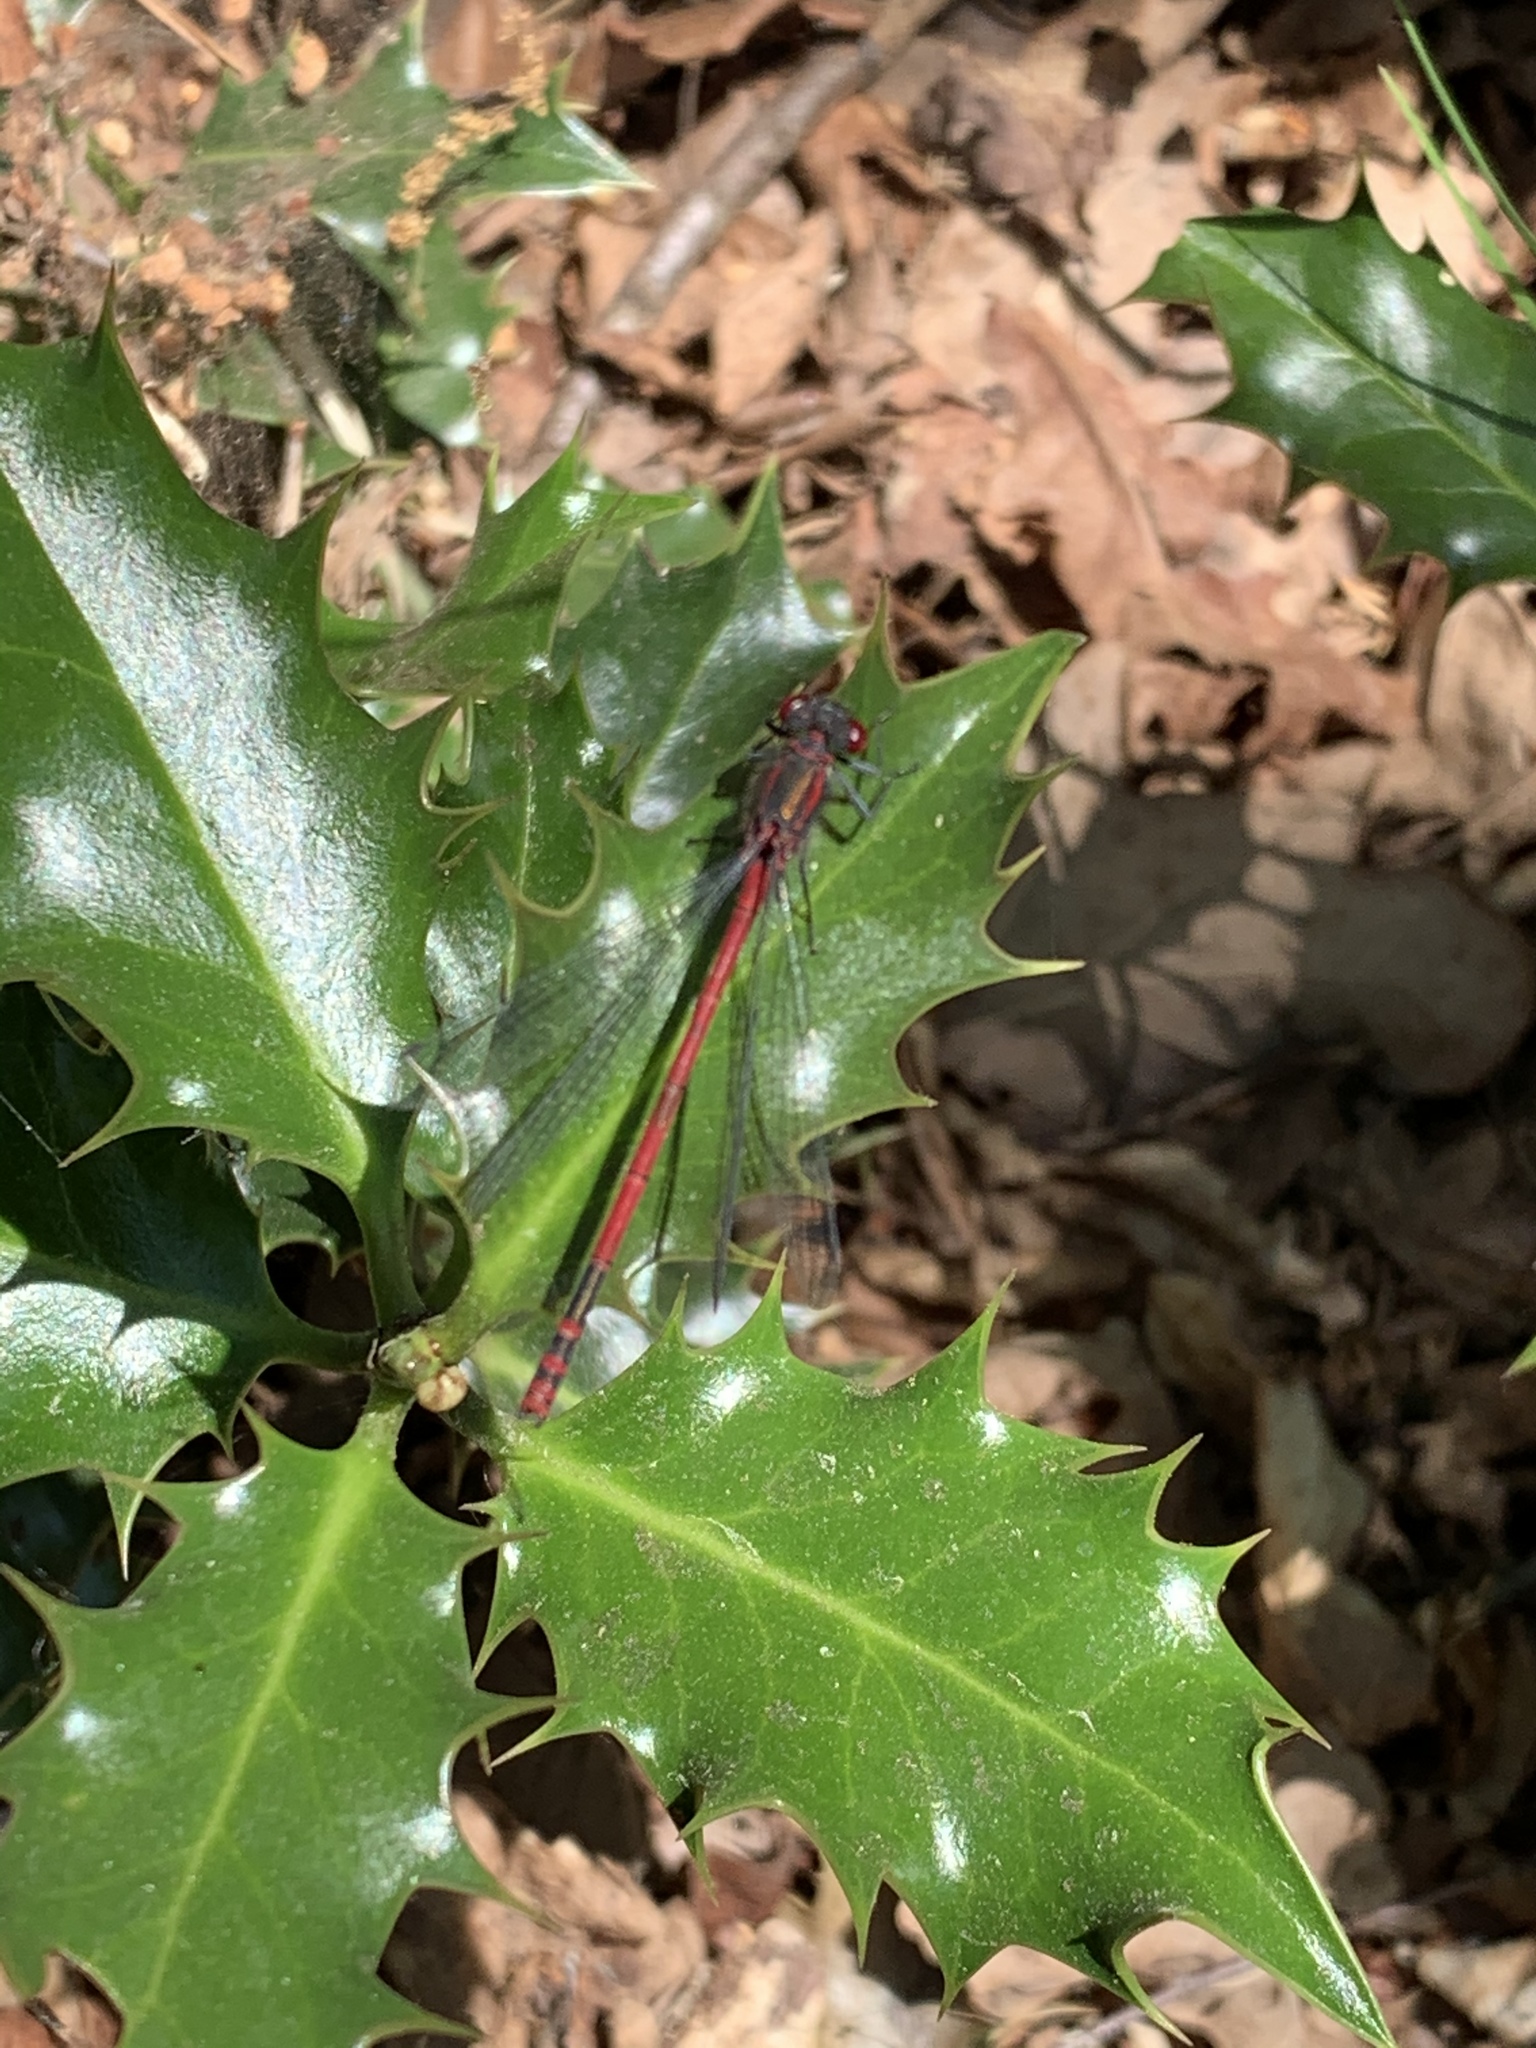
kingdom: Animalia
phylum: Arthropoda
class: Insecta
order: Odonata
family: Coenagrionidae
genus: Pyrrhosoma
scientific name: Pyrrhosoma nymphula
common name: Large red damsel
